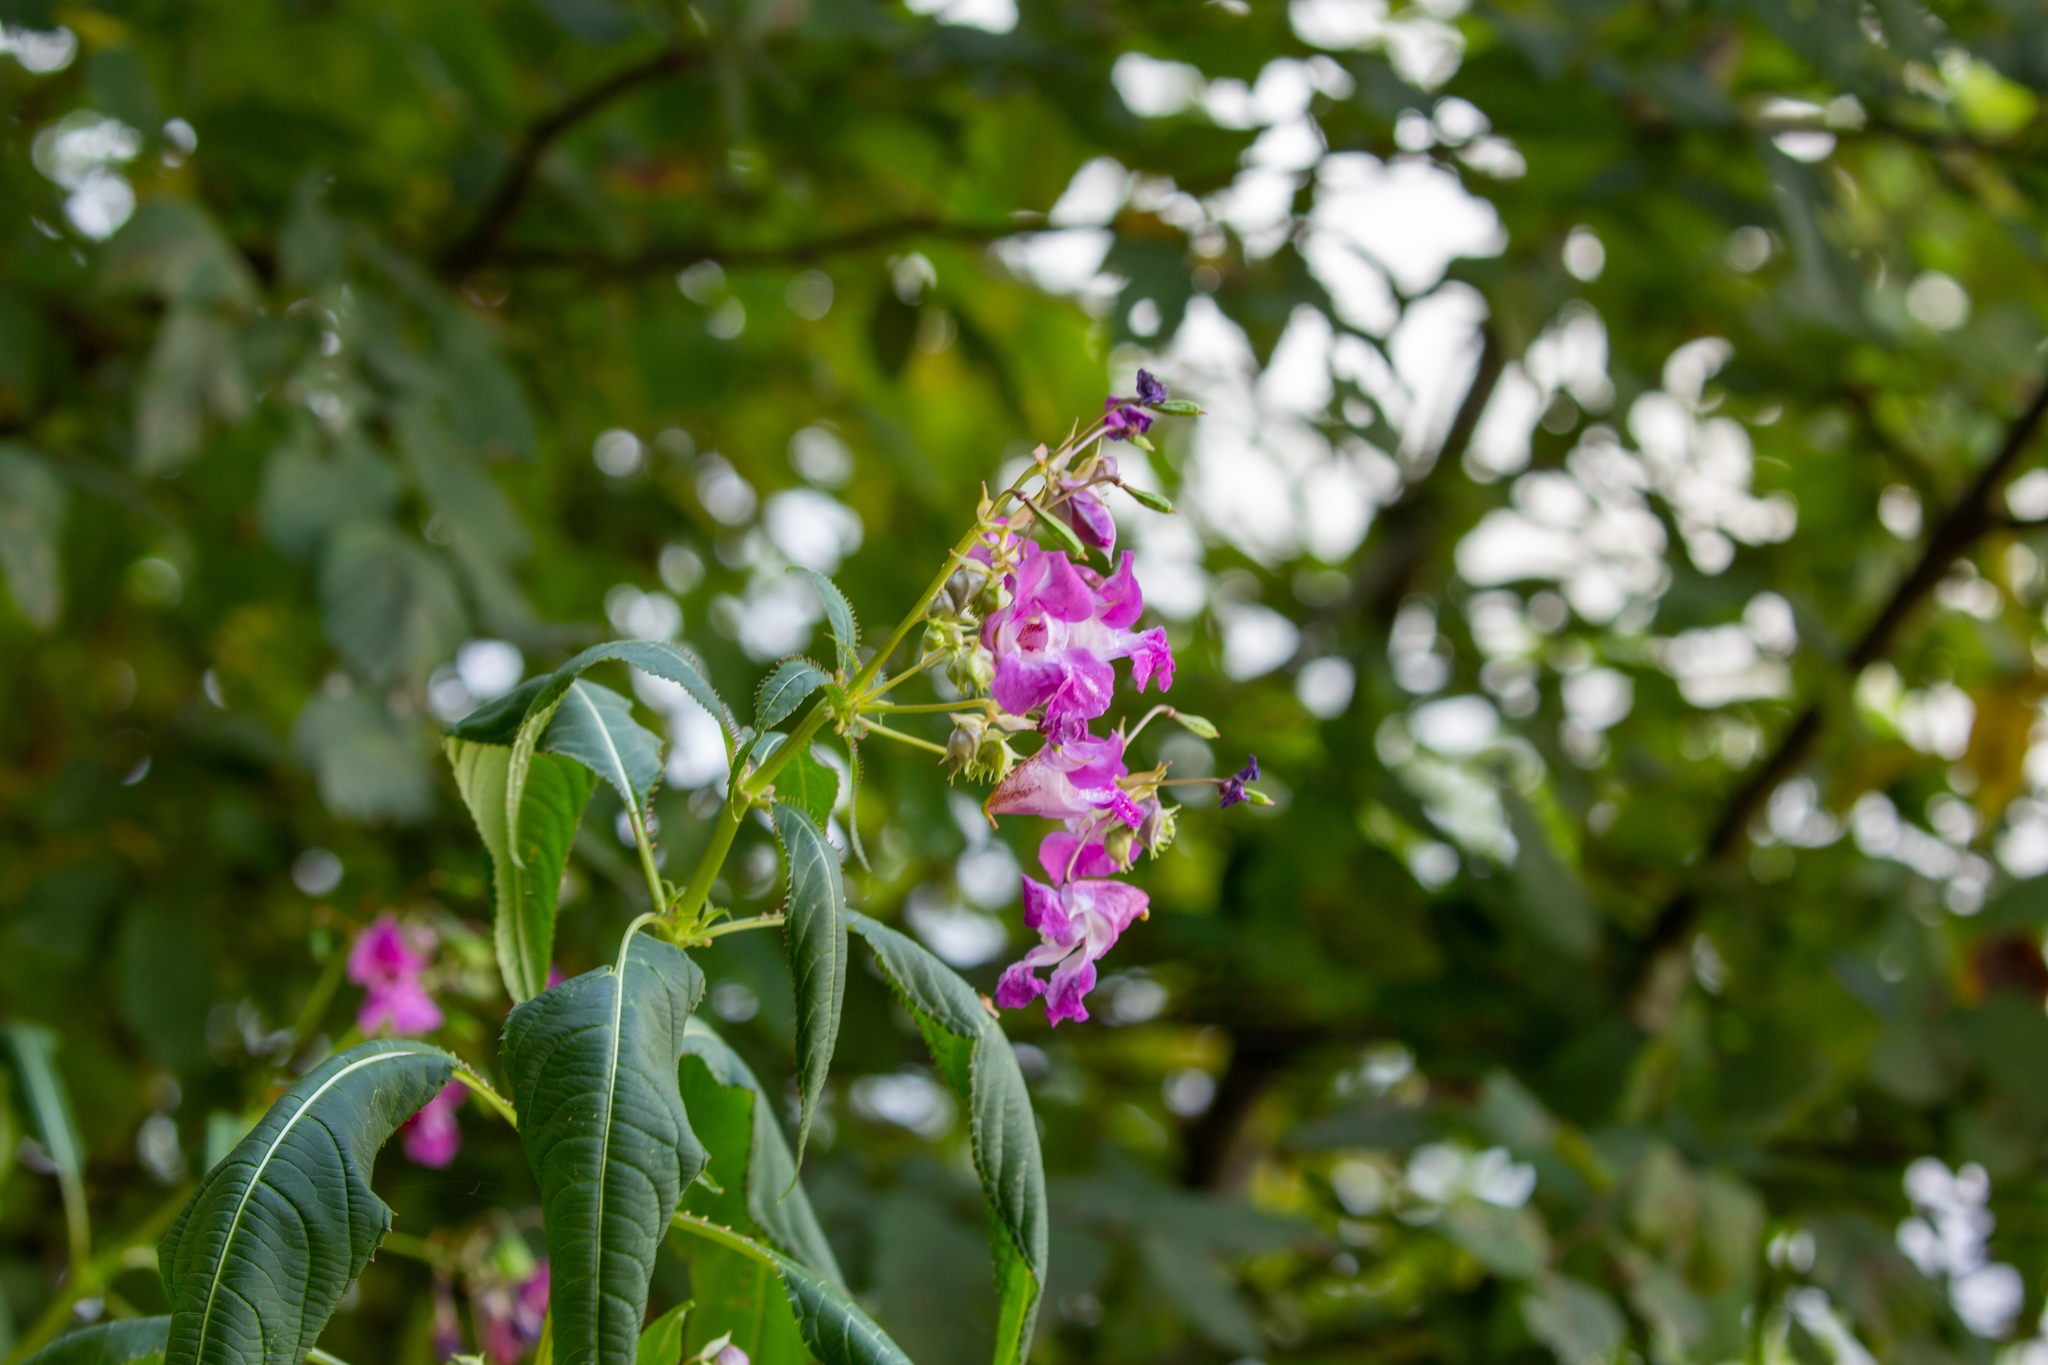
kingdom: Plantae
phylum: Tracheophyta
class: Magnoliopsida
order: Ericales
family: Balsaminaceae
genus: Impatiens
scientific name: Impatiens glandulifera
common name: Himalayan balsam
